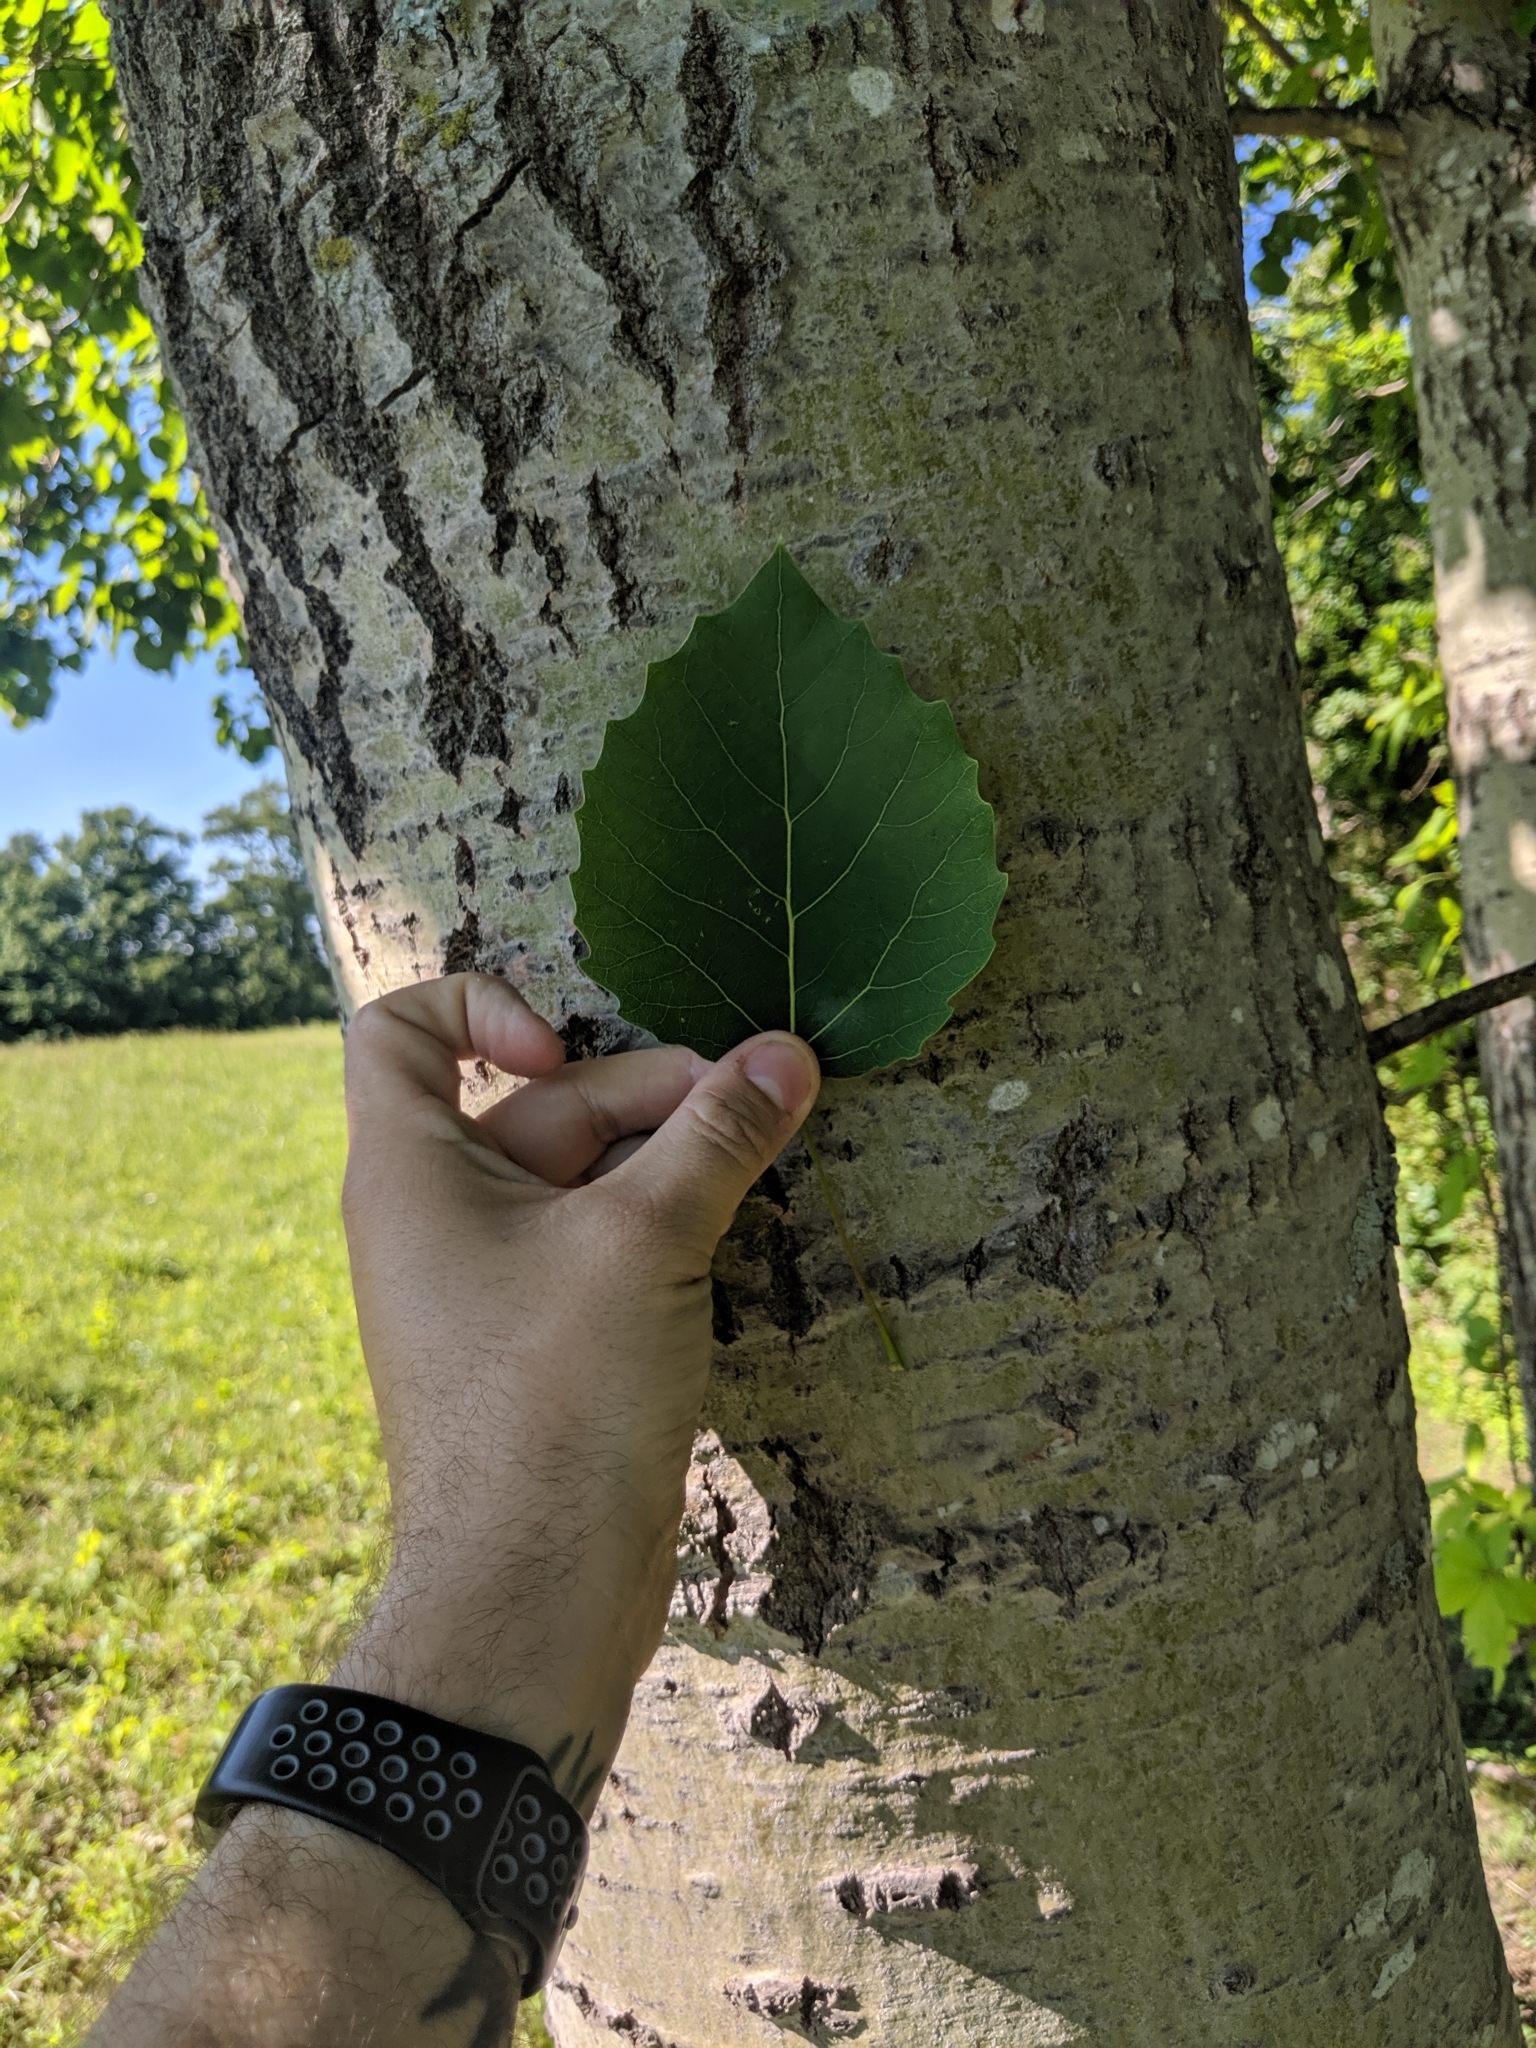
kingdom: Plantae
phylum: Tracheophyta
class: Magnoliopsida
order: Malpighiales
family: Salicaceae
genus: Populus
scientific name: Populus grandidentata
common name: Bigtooth aspen
